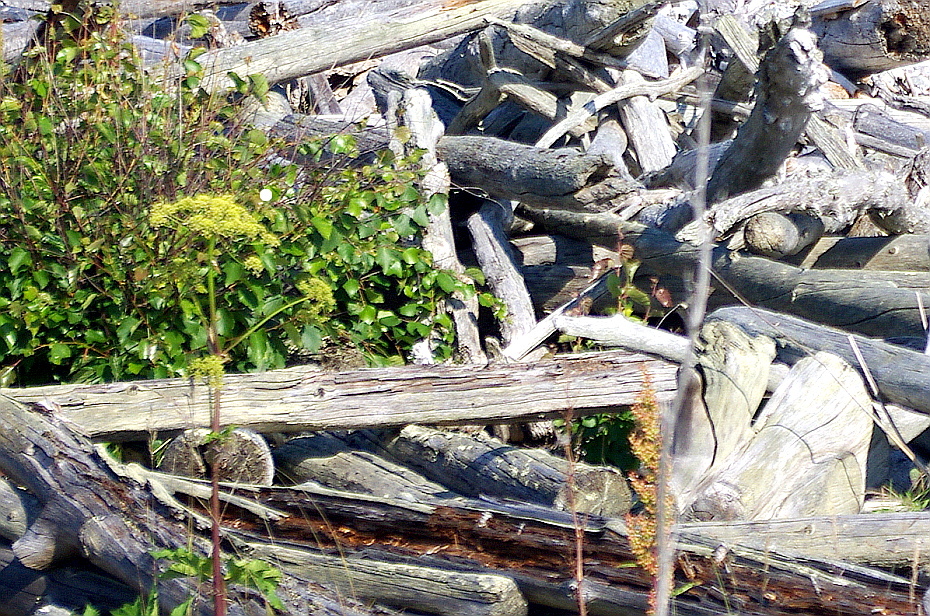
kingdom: Plantae
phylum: Tracheophyta
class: Magnoliopsida
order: Apiales
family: Apiaceae
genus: Heracleum
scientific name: Heracleum sphondylium
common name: Hogweed
